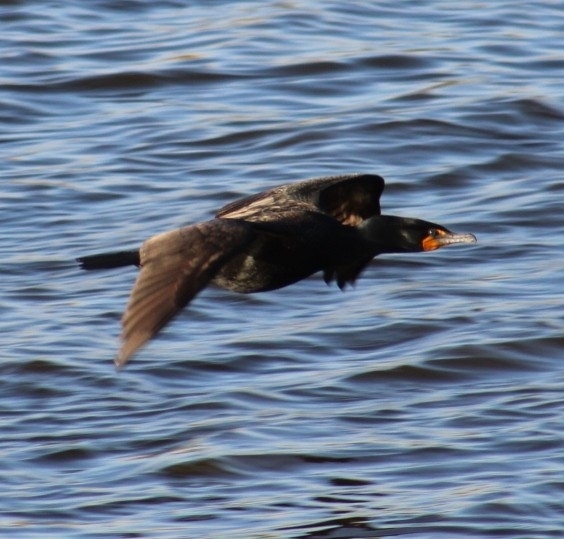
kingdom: Animalia
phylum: Chordata
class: Aves
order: Suliformes
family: Phalacrocoracidae
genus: Phalacrocorax
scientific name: Phalacrocorax auritus
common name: Double-crested cormorant
